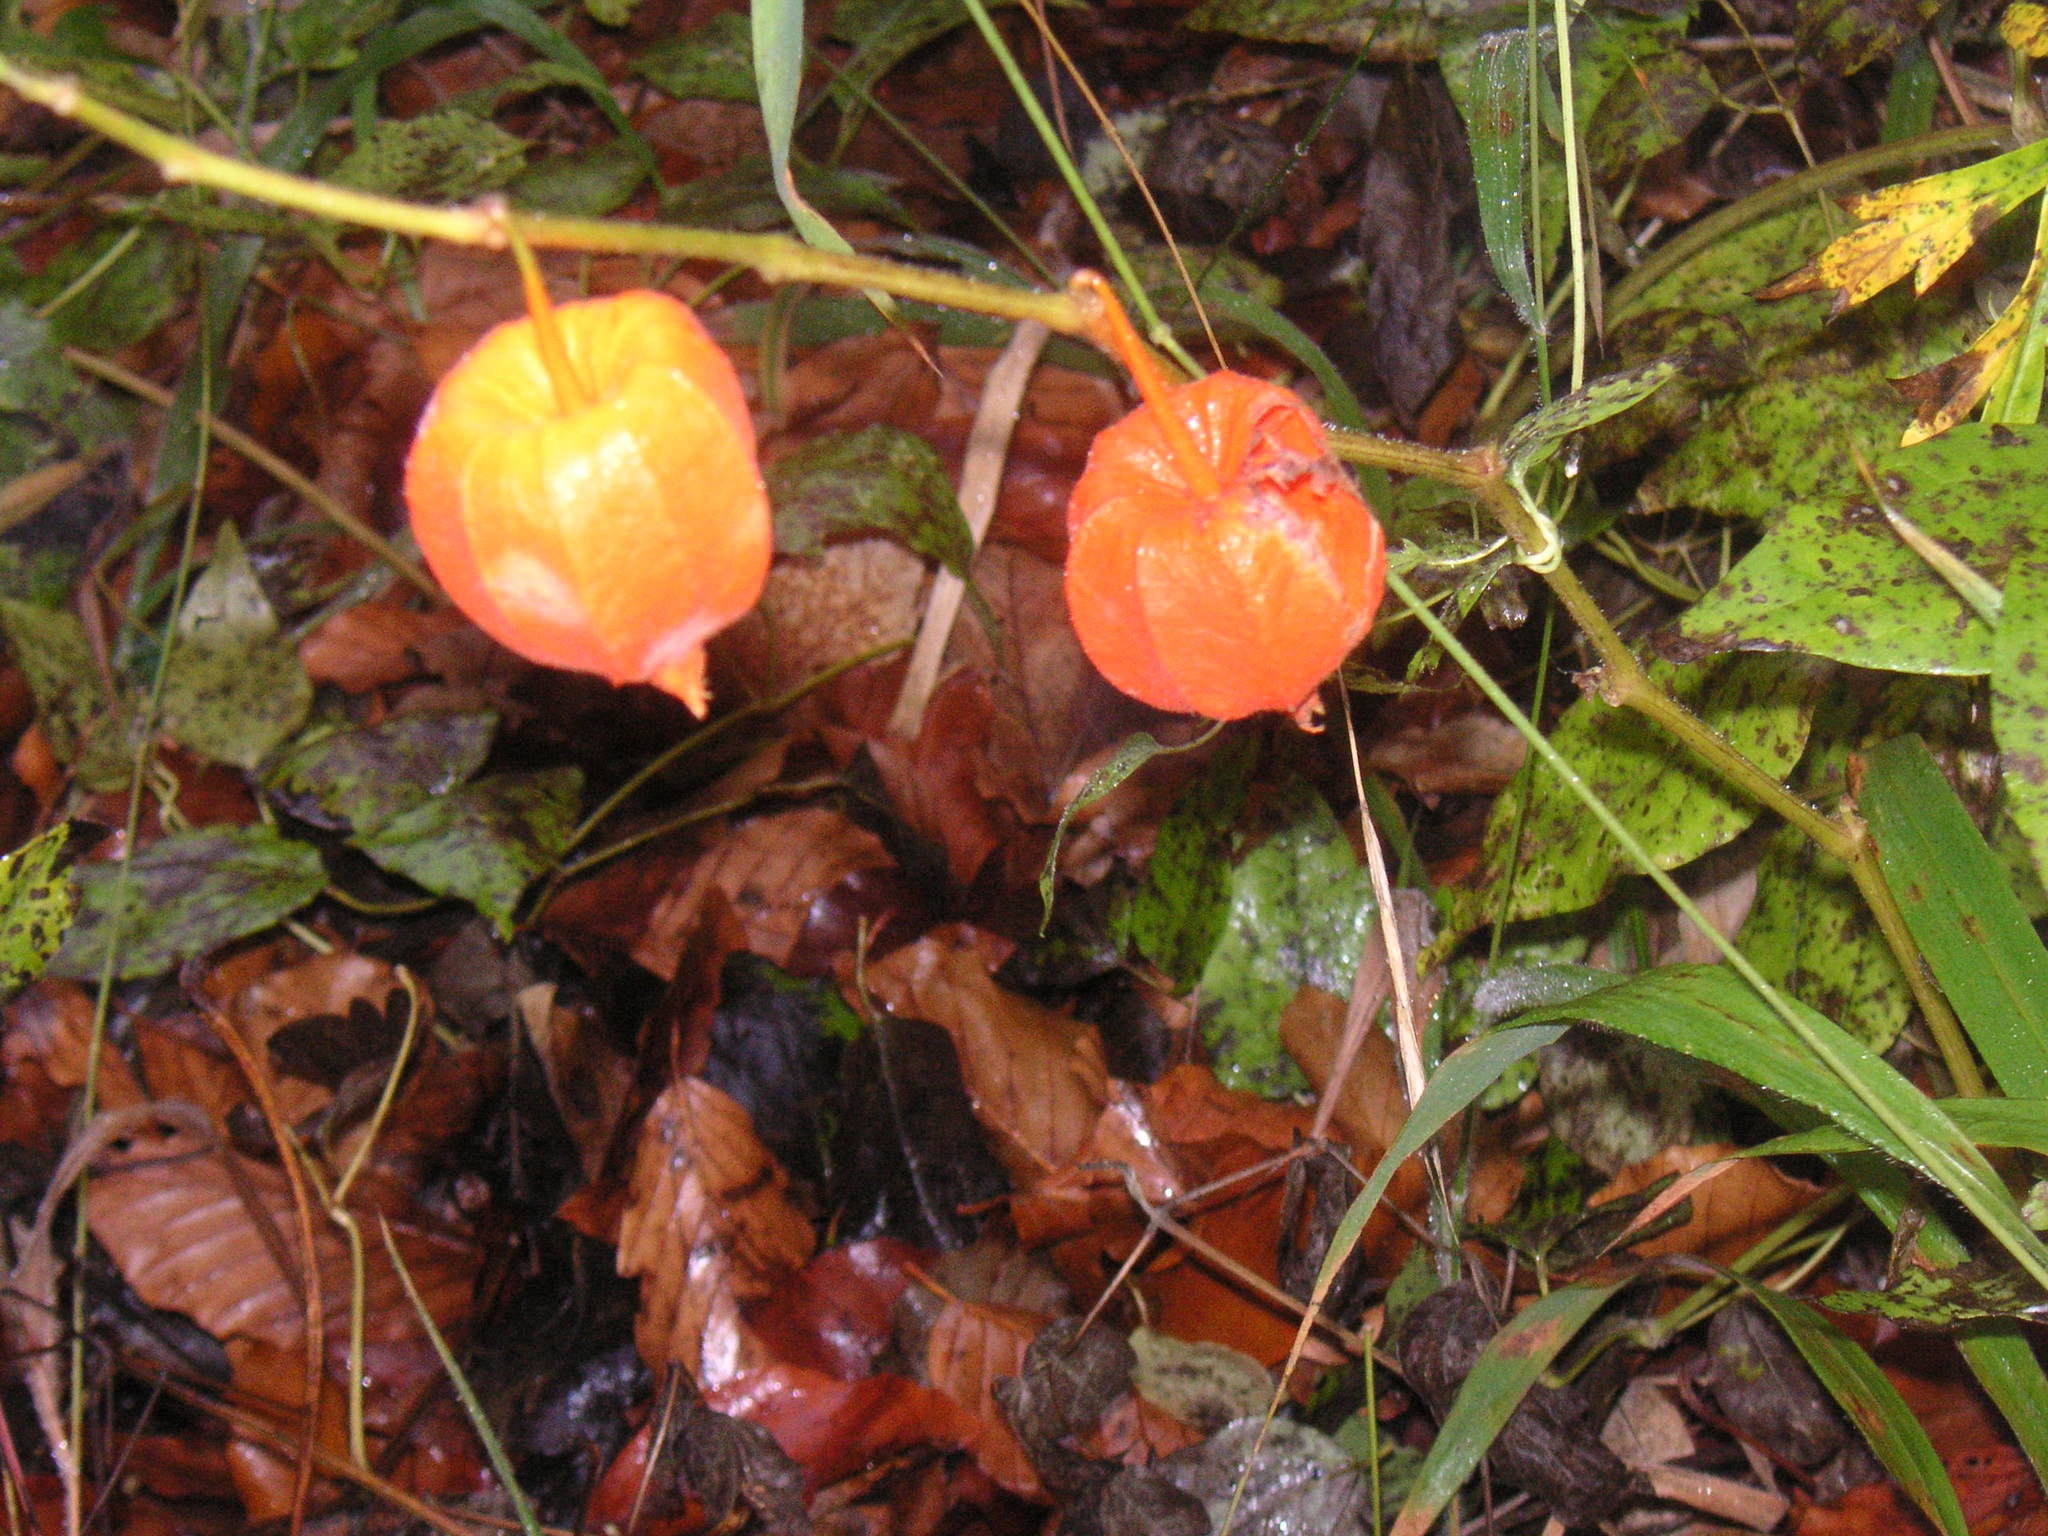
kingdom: Plantae
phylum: Tracheophyta
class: Magnoliopsida
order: Solanales
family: Solanaceae
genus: Alkekengi
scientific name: Alkekengi officinarum
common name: Japanese-lantern
